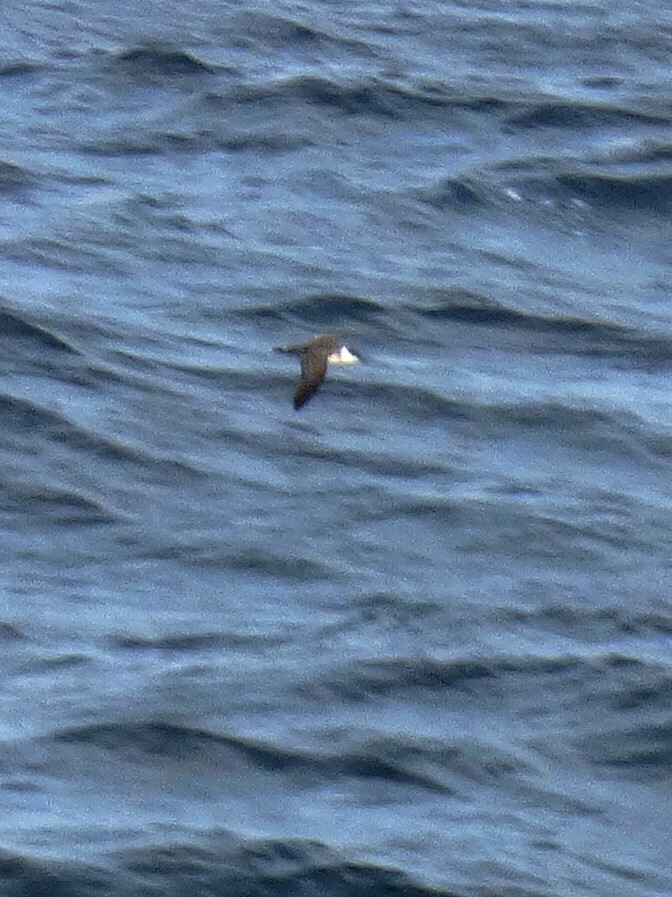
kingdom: Animalia
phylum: Chordata
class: Aves
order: Procellariiformes
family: Procellariidae
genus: Puffinus
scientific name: Puffinus gravis
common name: Great shearwater
